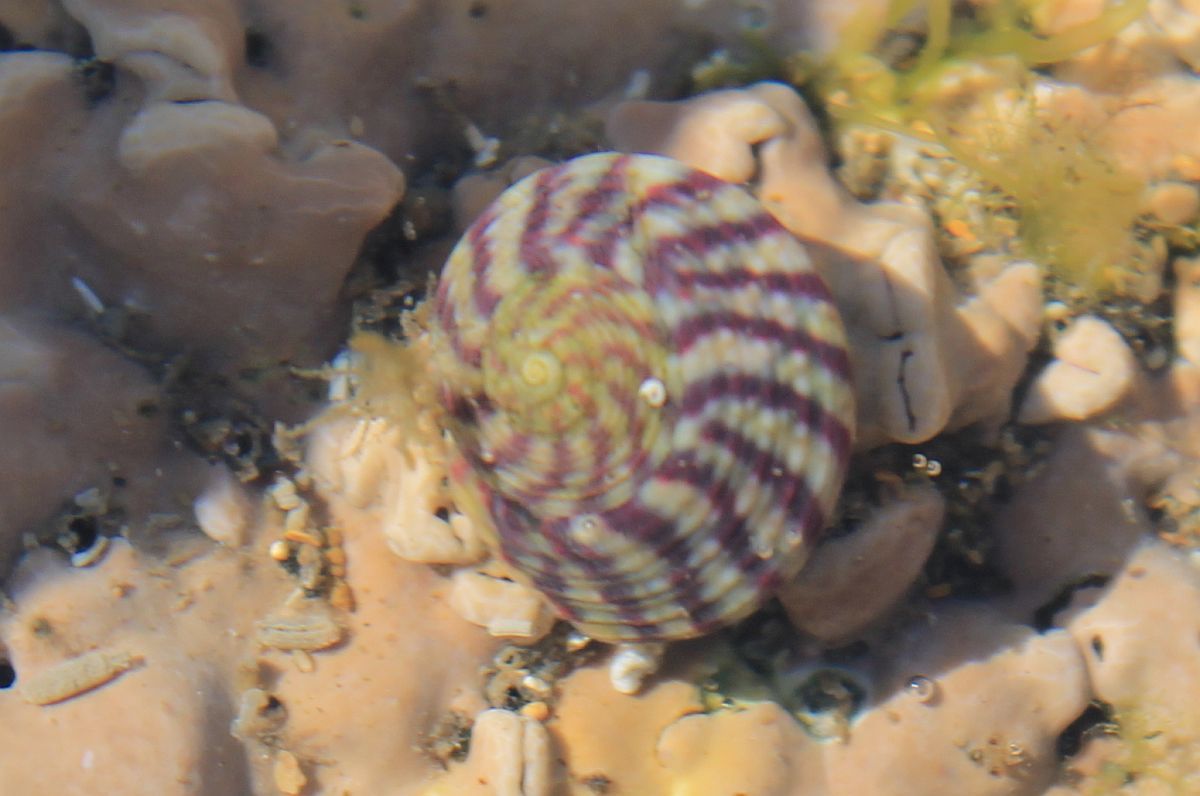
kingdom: Animalia
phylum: Mollusca
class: Gastropoda
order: Trochida
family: Trochidae
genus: Steromphala
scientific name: Steromphala umbilicalis
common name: Flat top shell
